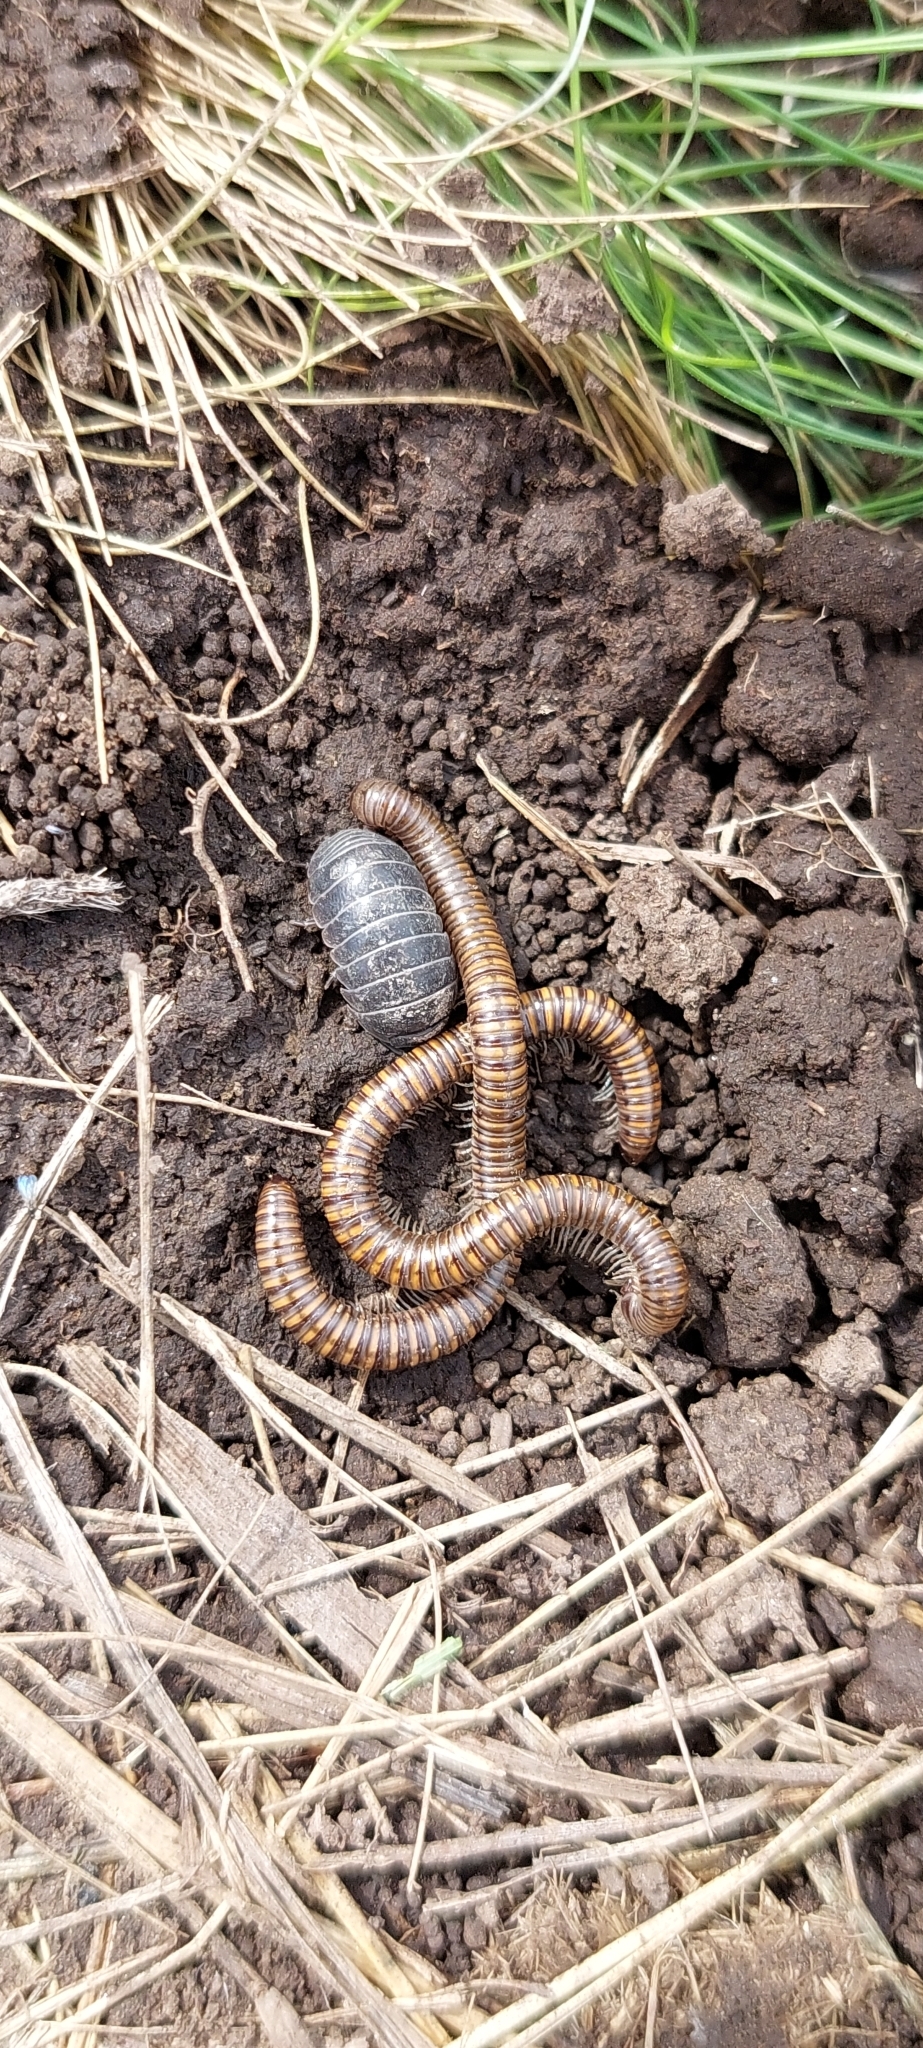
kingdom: Animalia
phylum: Arthropoda
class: Malacostraca
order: Isopoda
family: Armadillidiidae
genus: Armadillidium
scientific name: Armadillidium vulgare
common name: Common pill woodlouse
